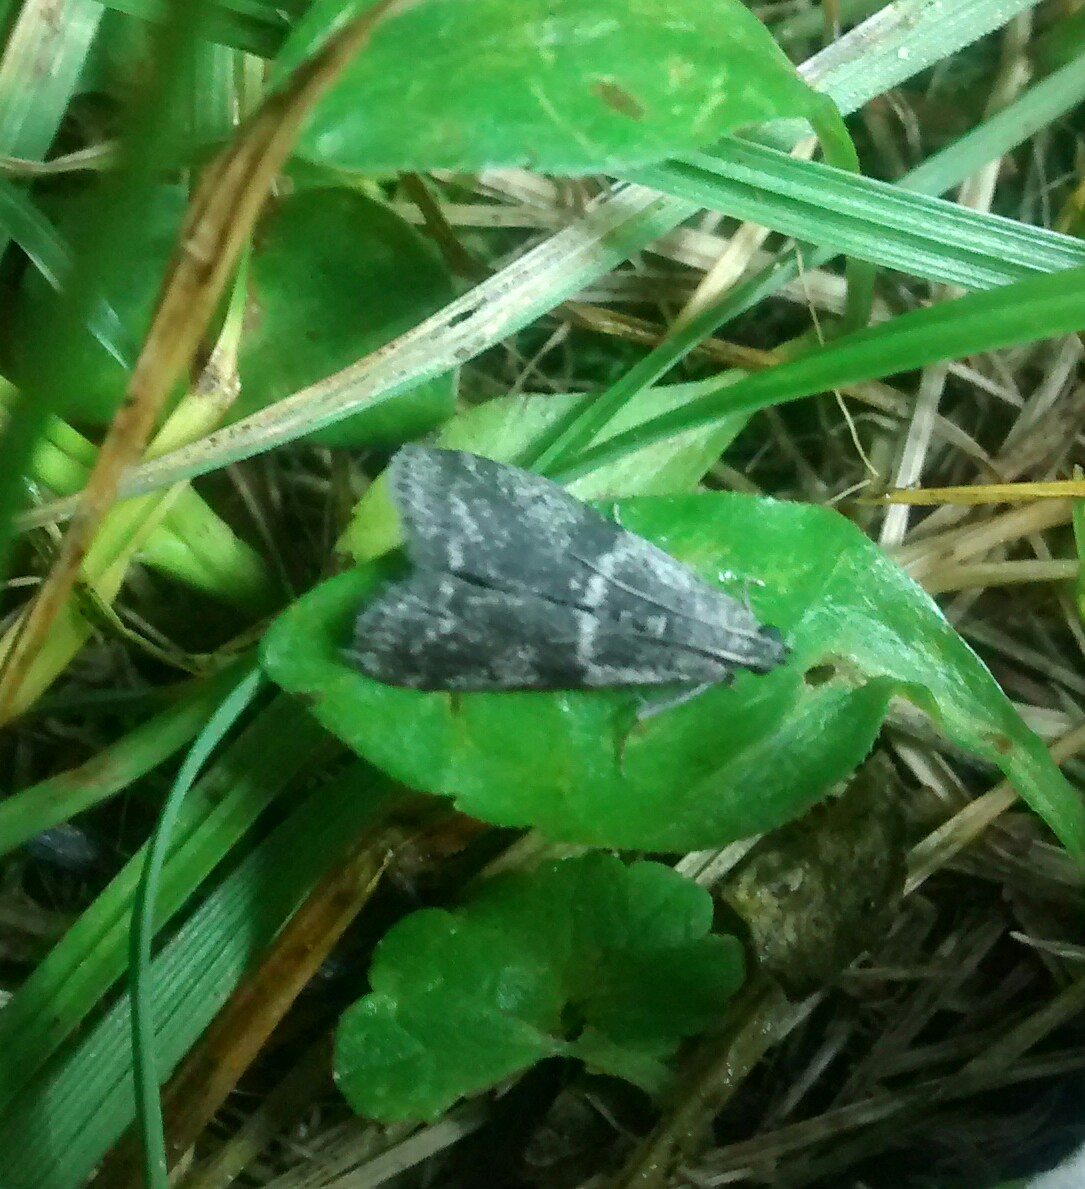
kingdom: Animalia
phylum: Arthropoda
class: Insecta
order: Lepidoptera
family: Pyralidae
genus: Apomyelois
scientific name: Apomyelois bistriatella
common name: Heath knot-horn
